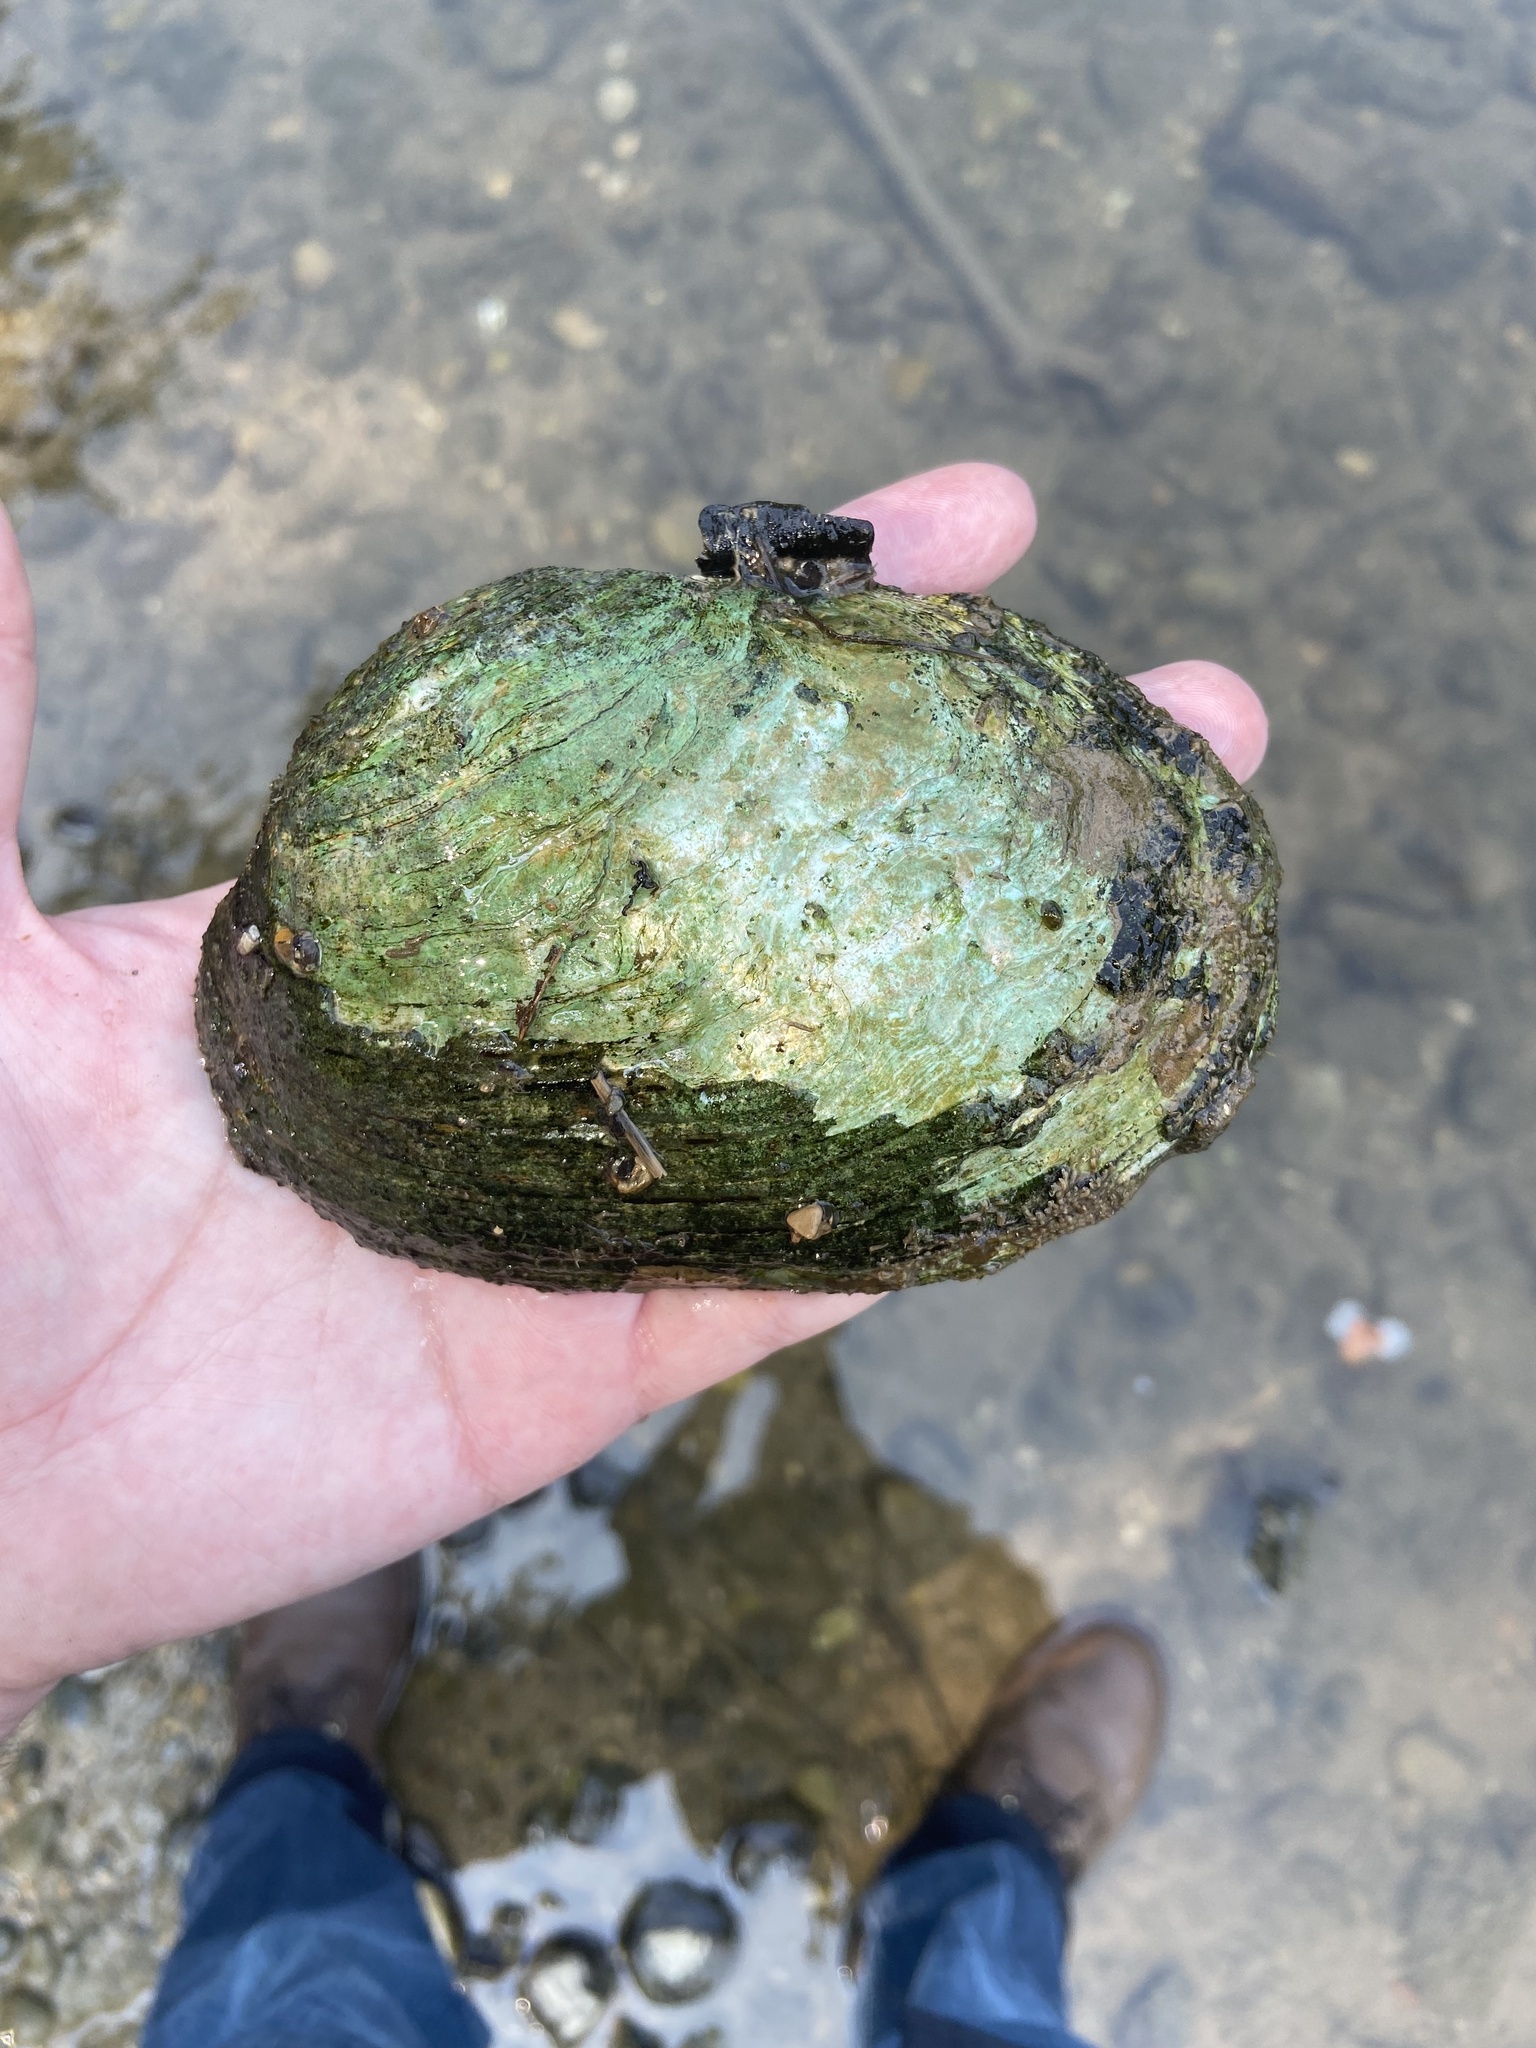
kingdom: Animalia
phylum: Mollusca
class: Bivalvia
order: Unionida
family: Unionidae
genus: Ortmanniana
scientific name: Ortmanniana ligamentina
